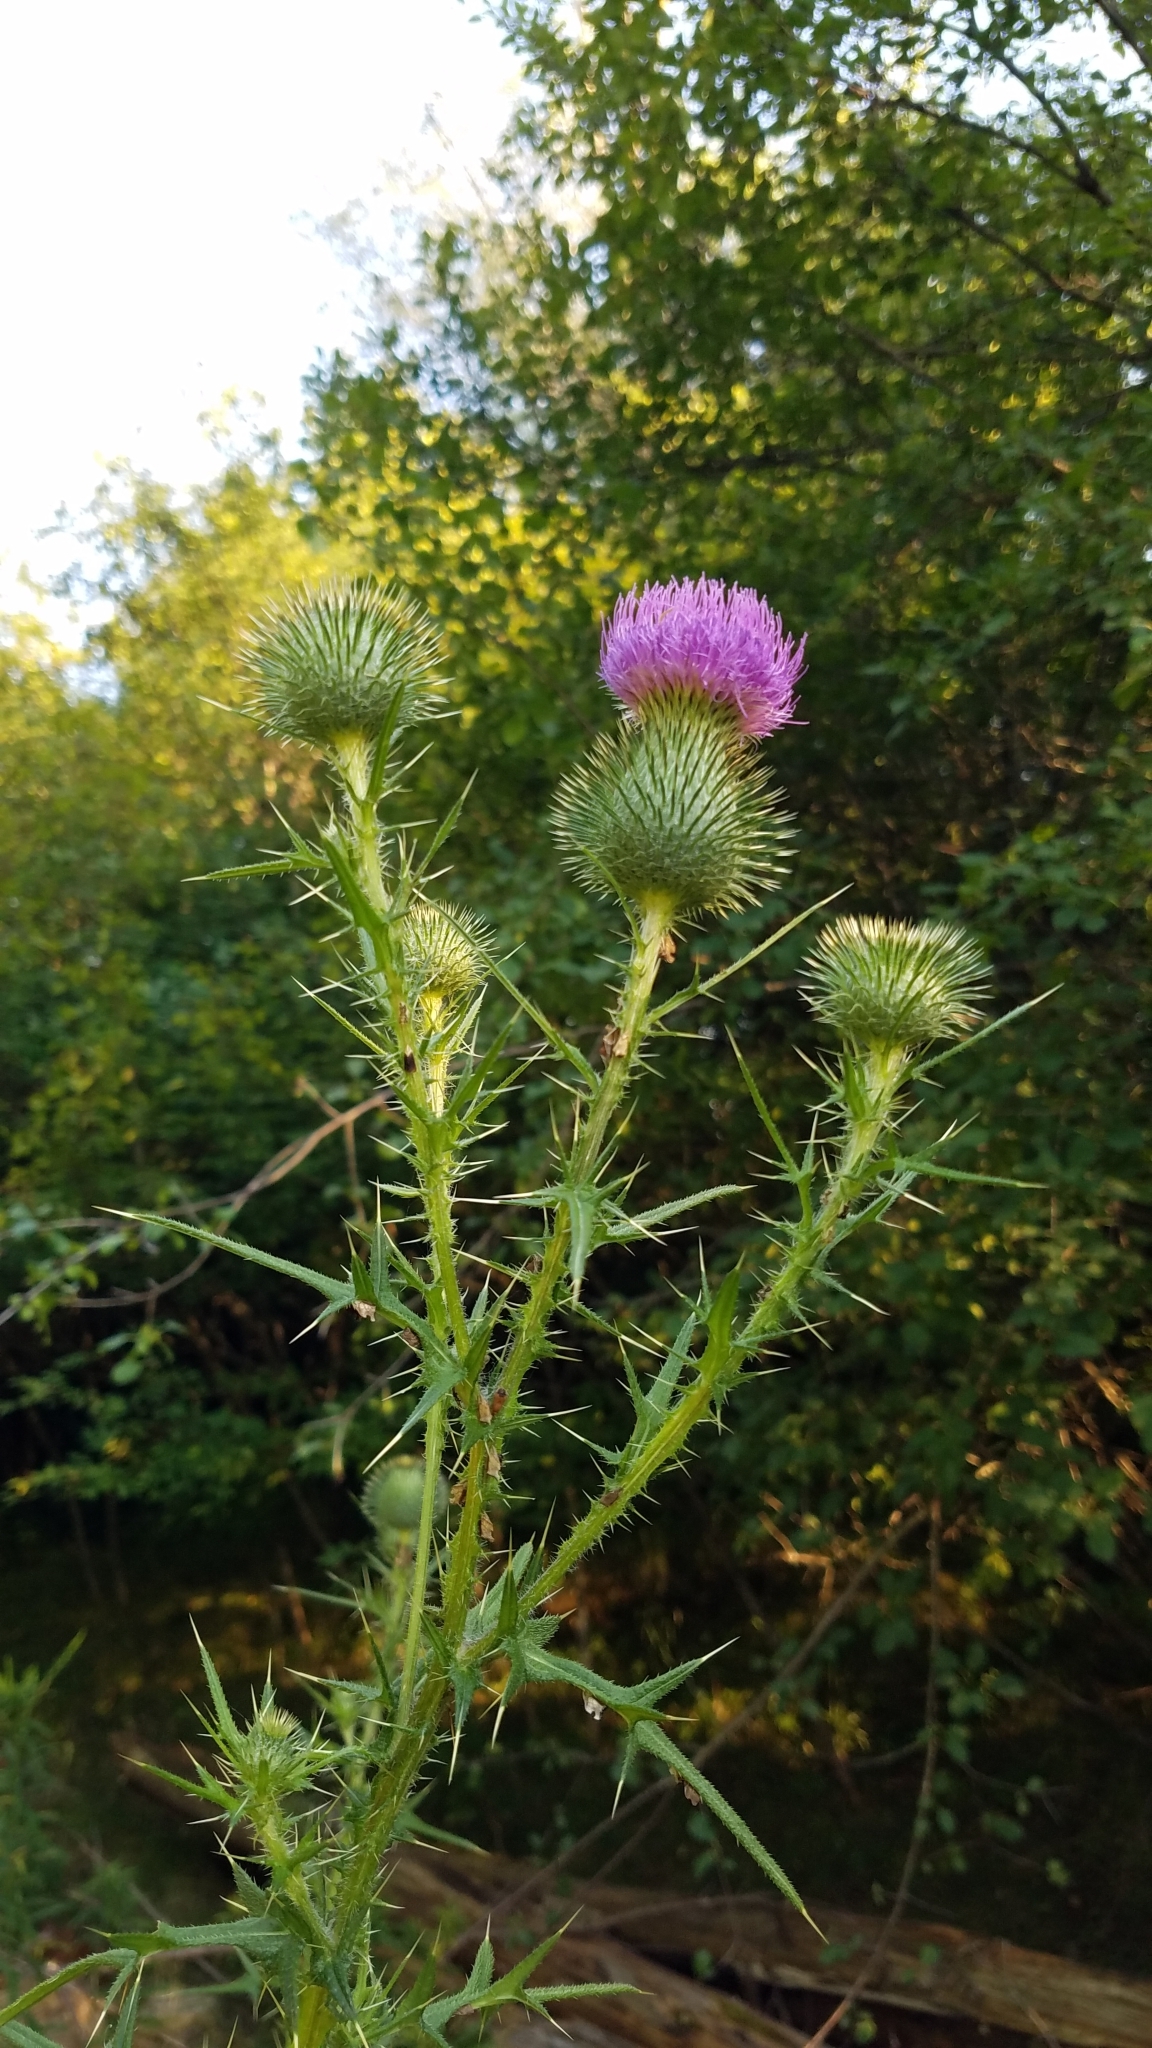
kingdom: Plantae
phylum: Tracheophyta
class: Magnoliopsida
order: Asterales
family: Asteraceae
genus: Cirsium
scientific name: Cirsium vulgare
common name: Bull thistle
